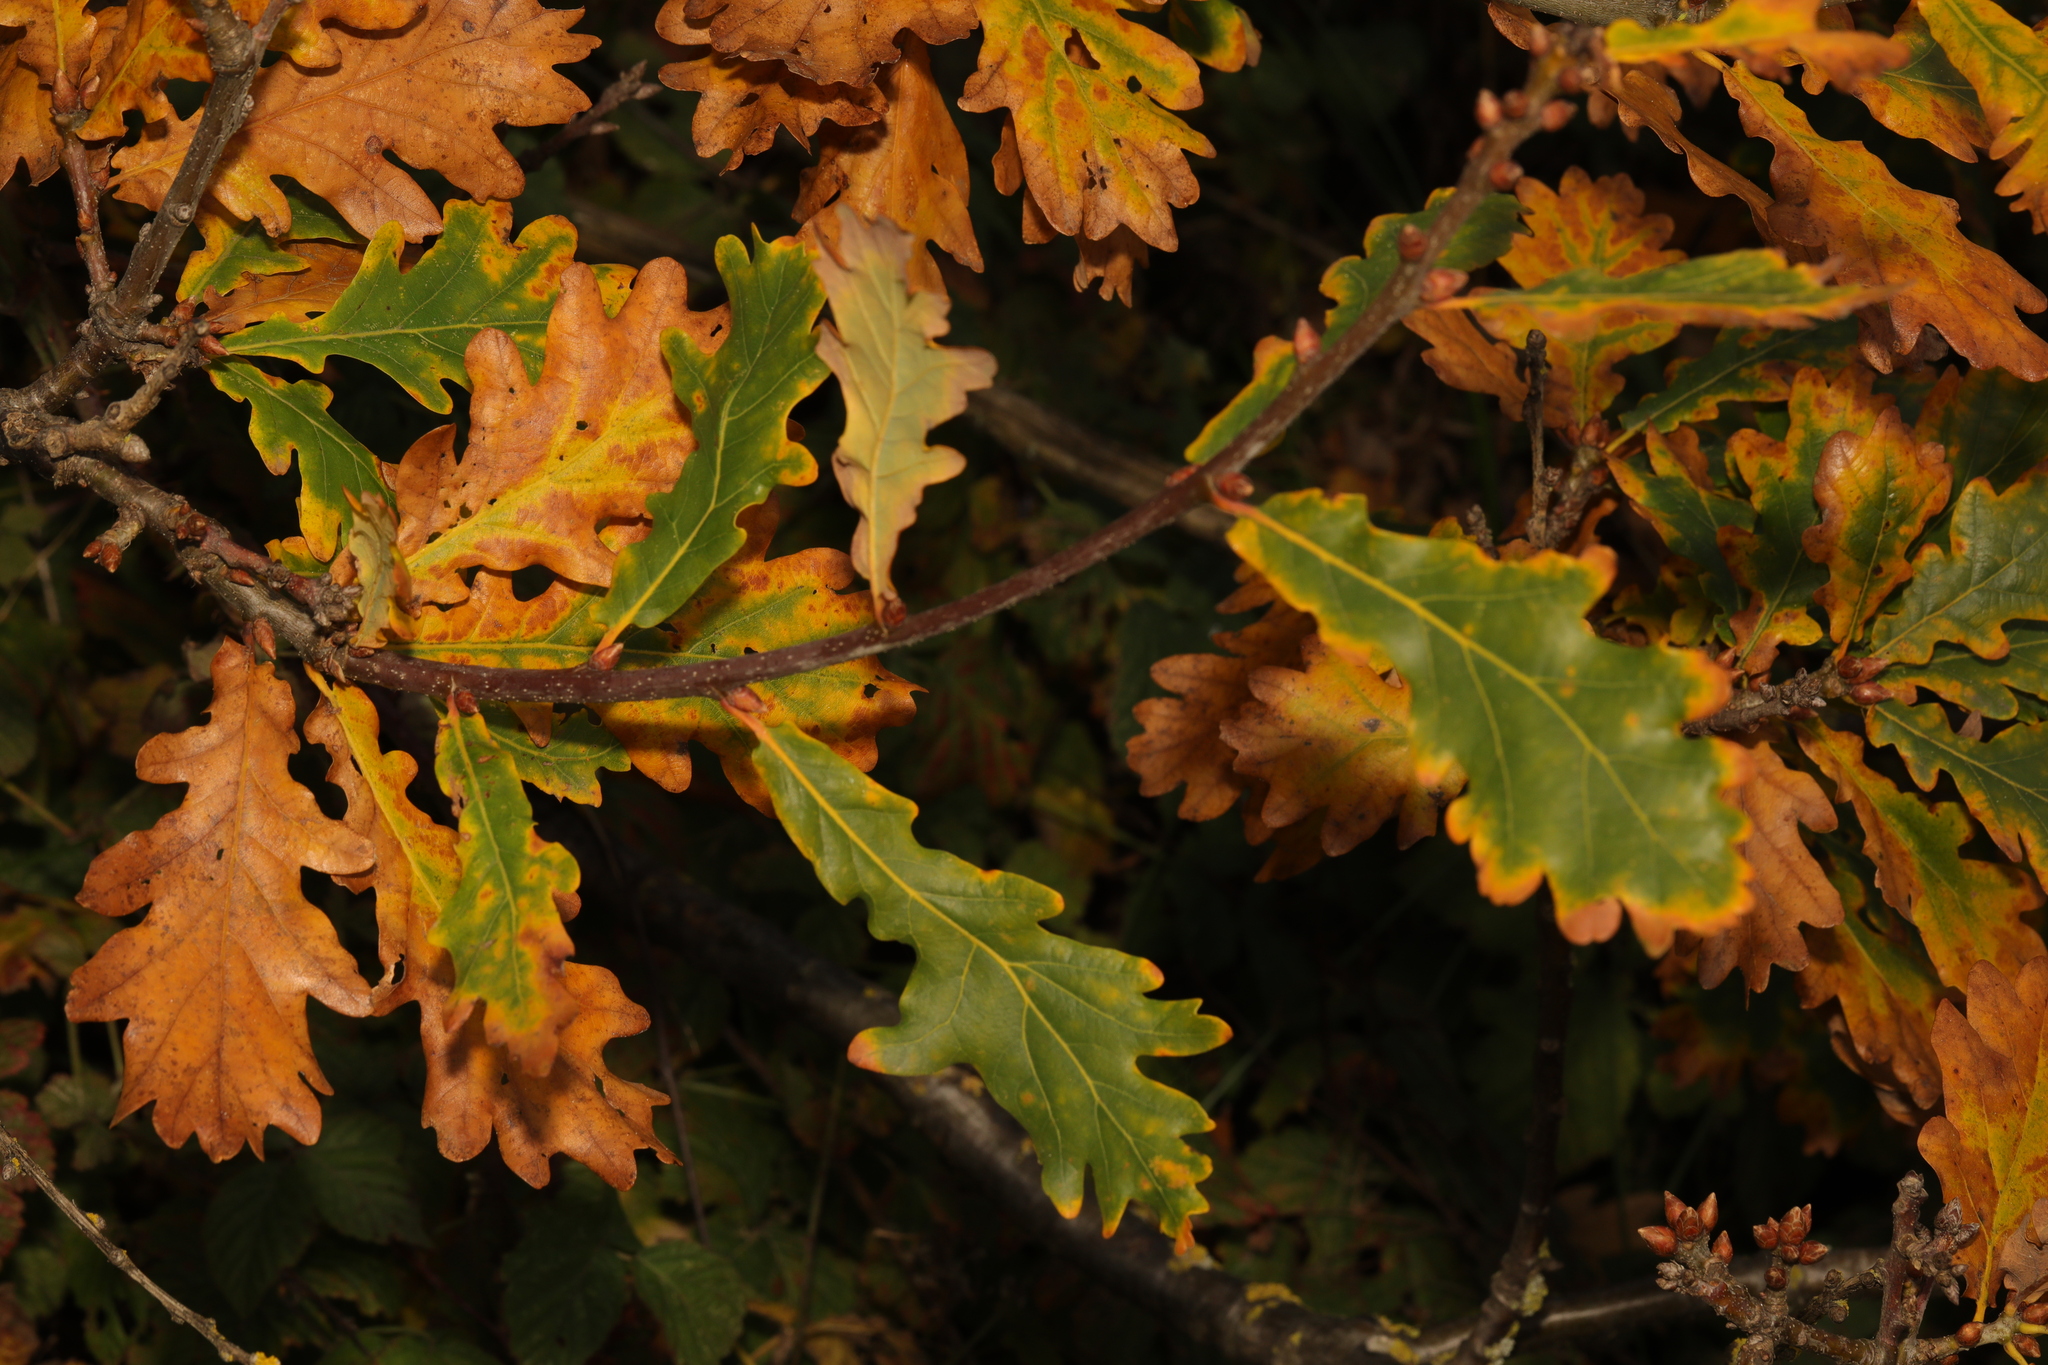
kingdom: Plantae
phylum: Tracheophyta
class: Magnoliopsida
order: Fagales
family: Fagaceae
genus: Quercus
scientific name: Quercus robur
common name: Pedunculate oak
